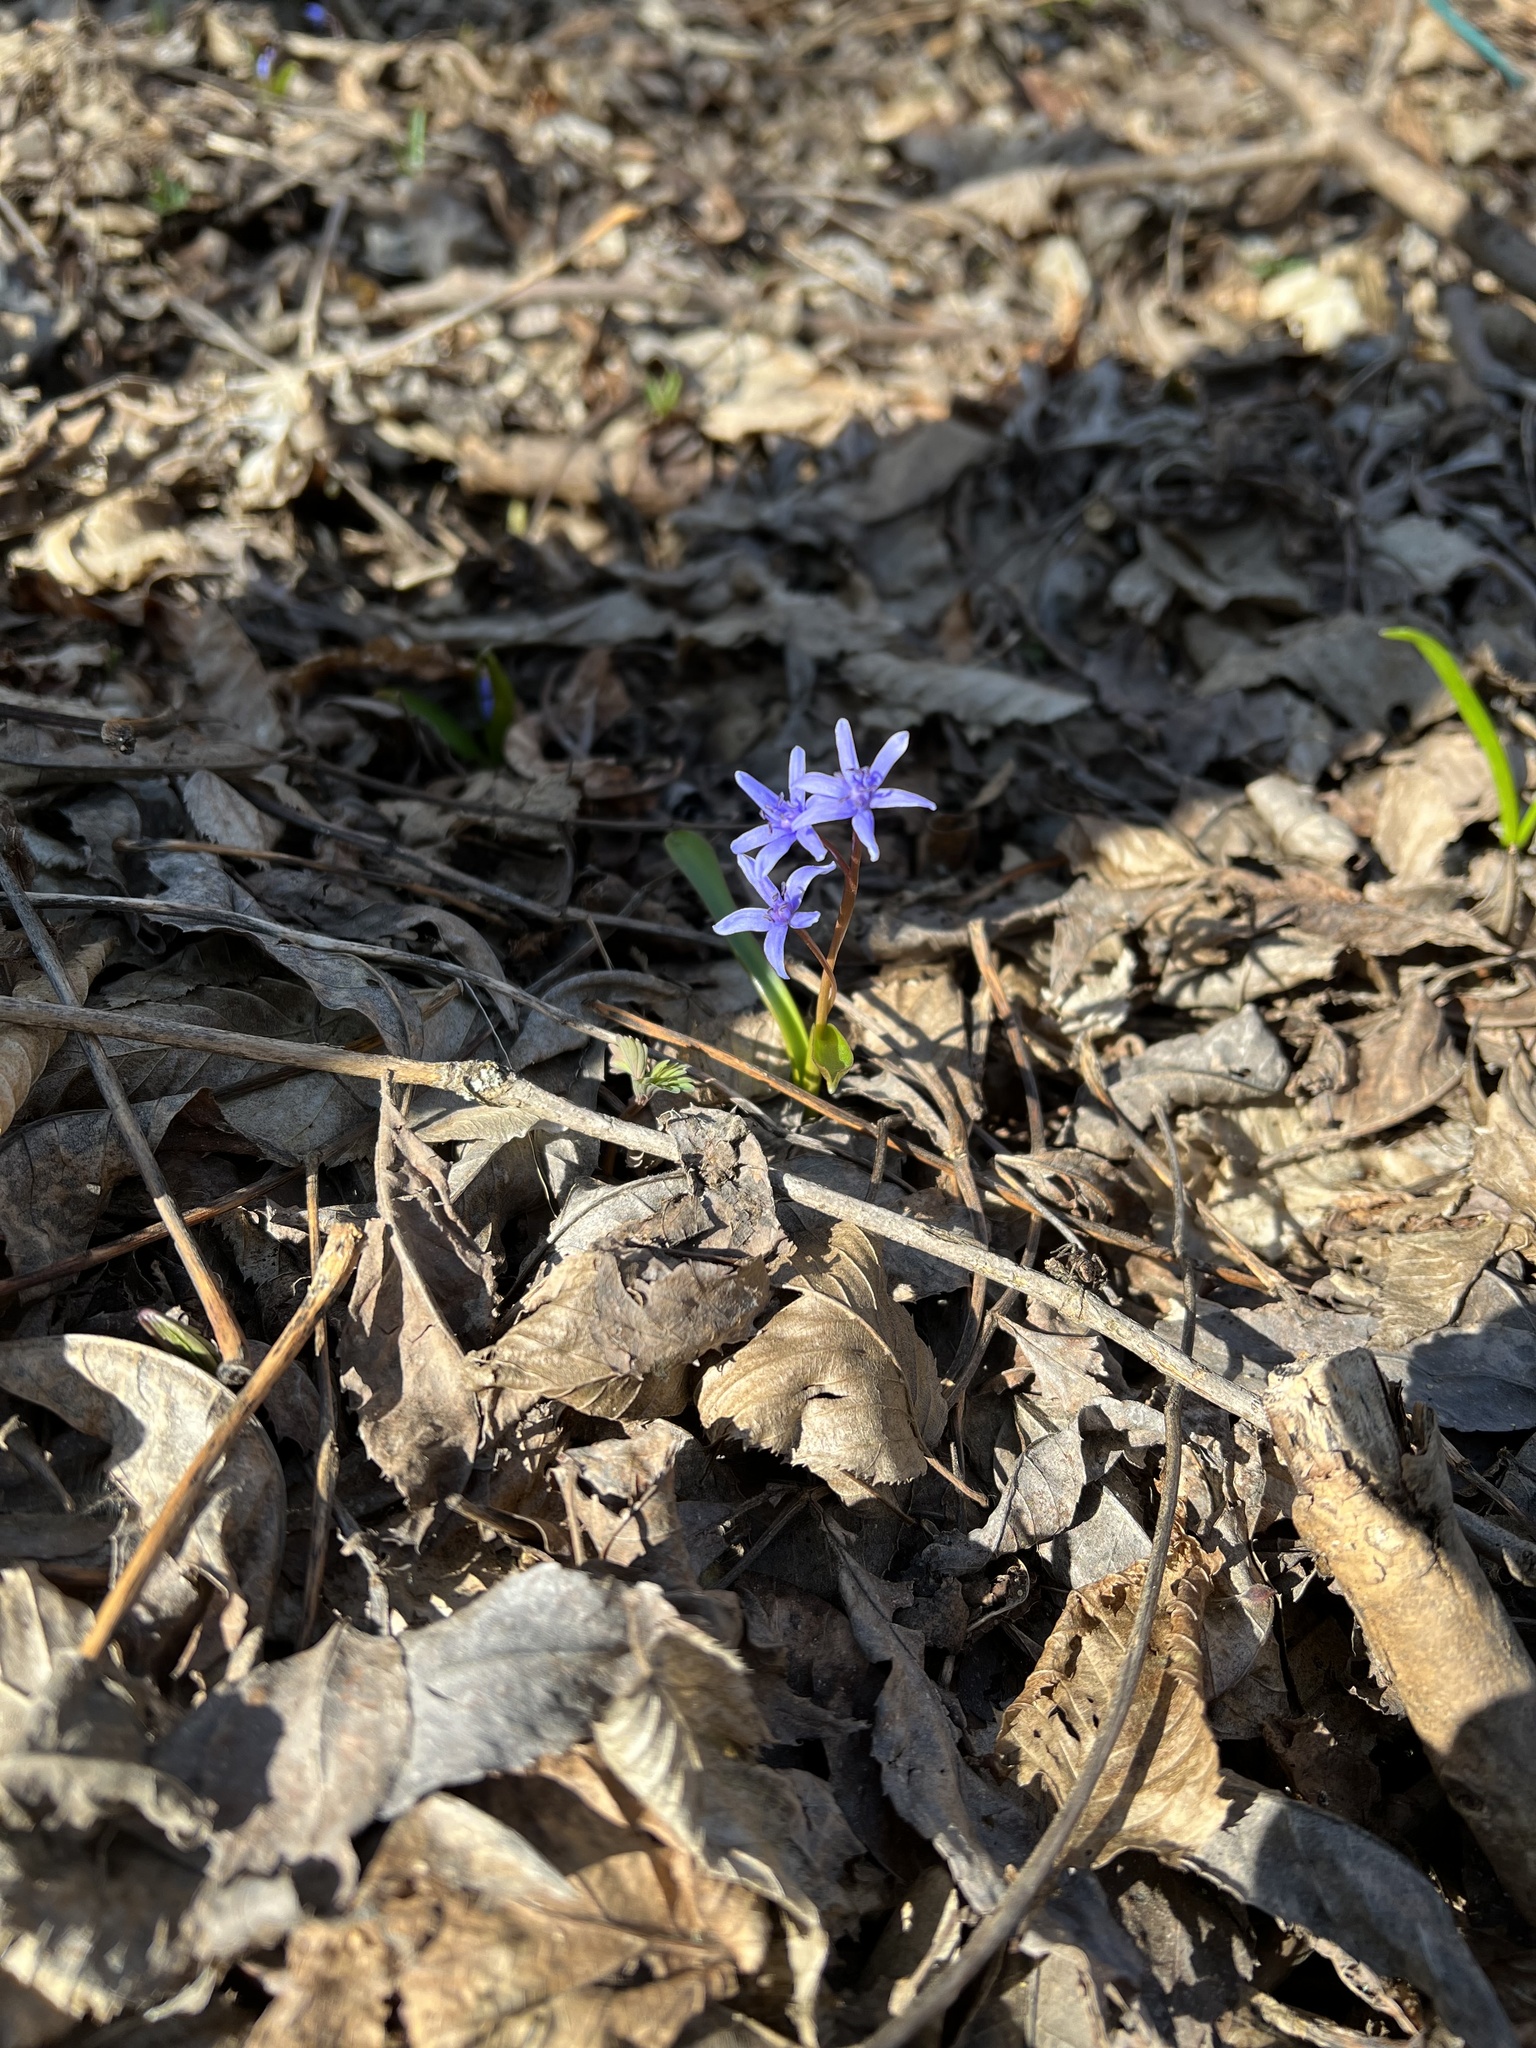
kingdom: Plantae
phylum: Tracheophyta
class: Liliopsida
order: Asparagales
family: Asparagaceae
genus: Scilla
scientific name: Scilla bifolia
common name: Alpine squill
